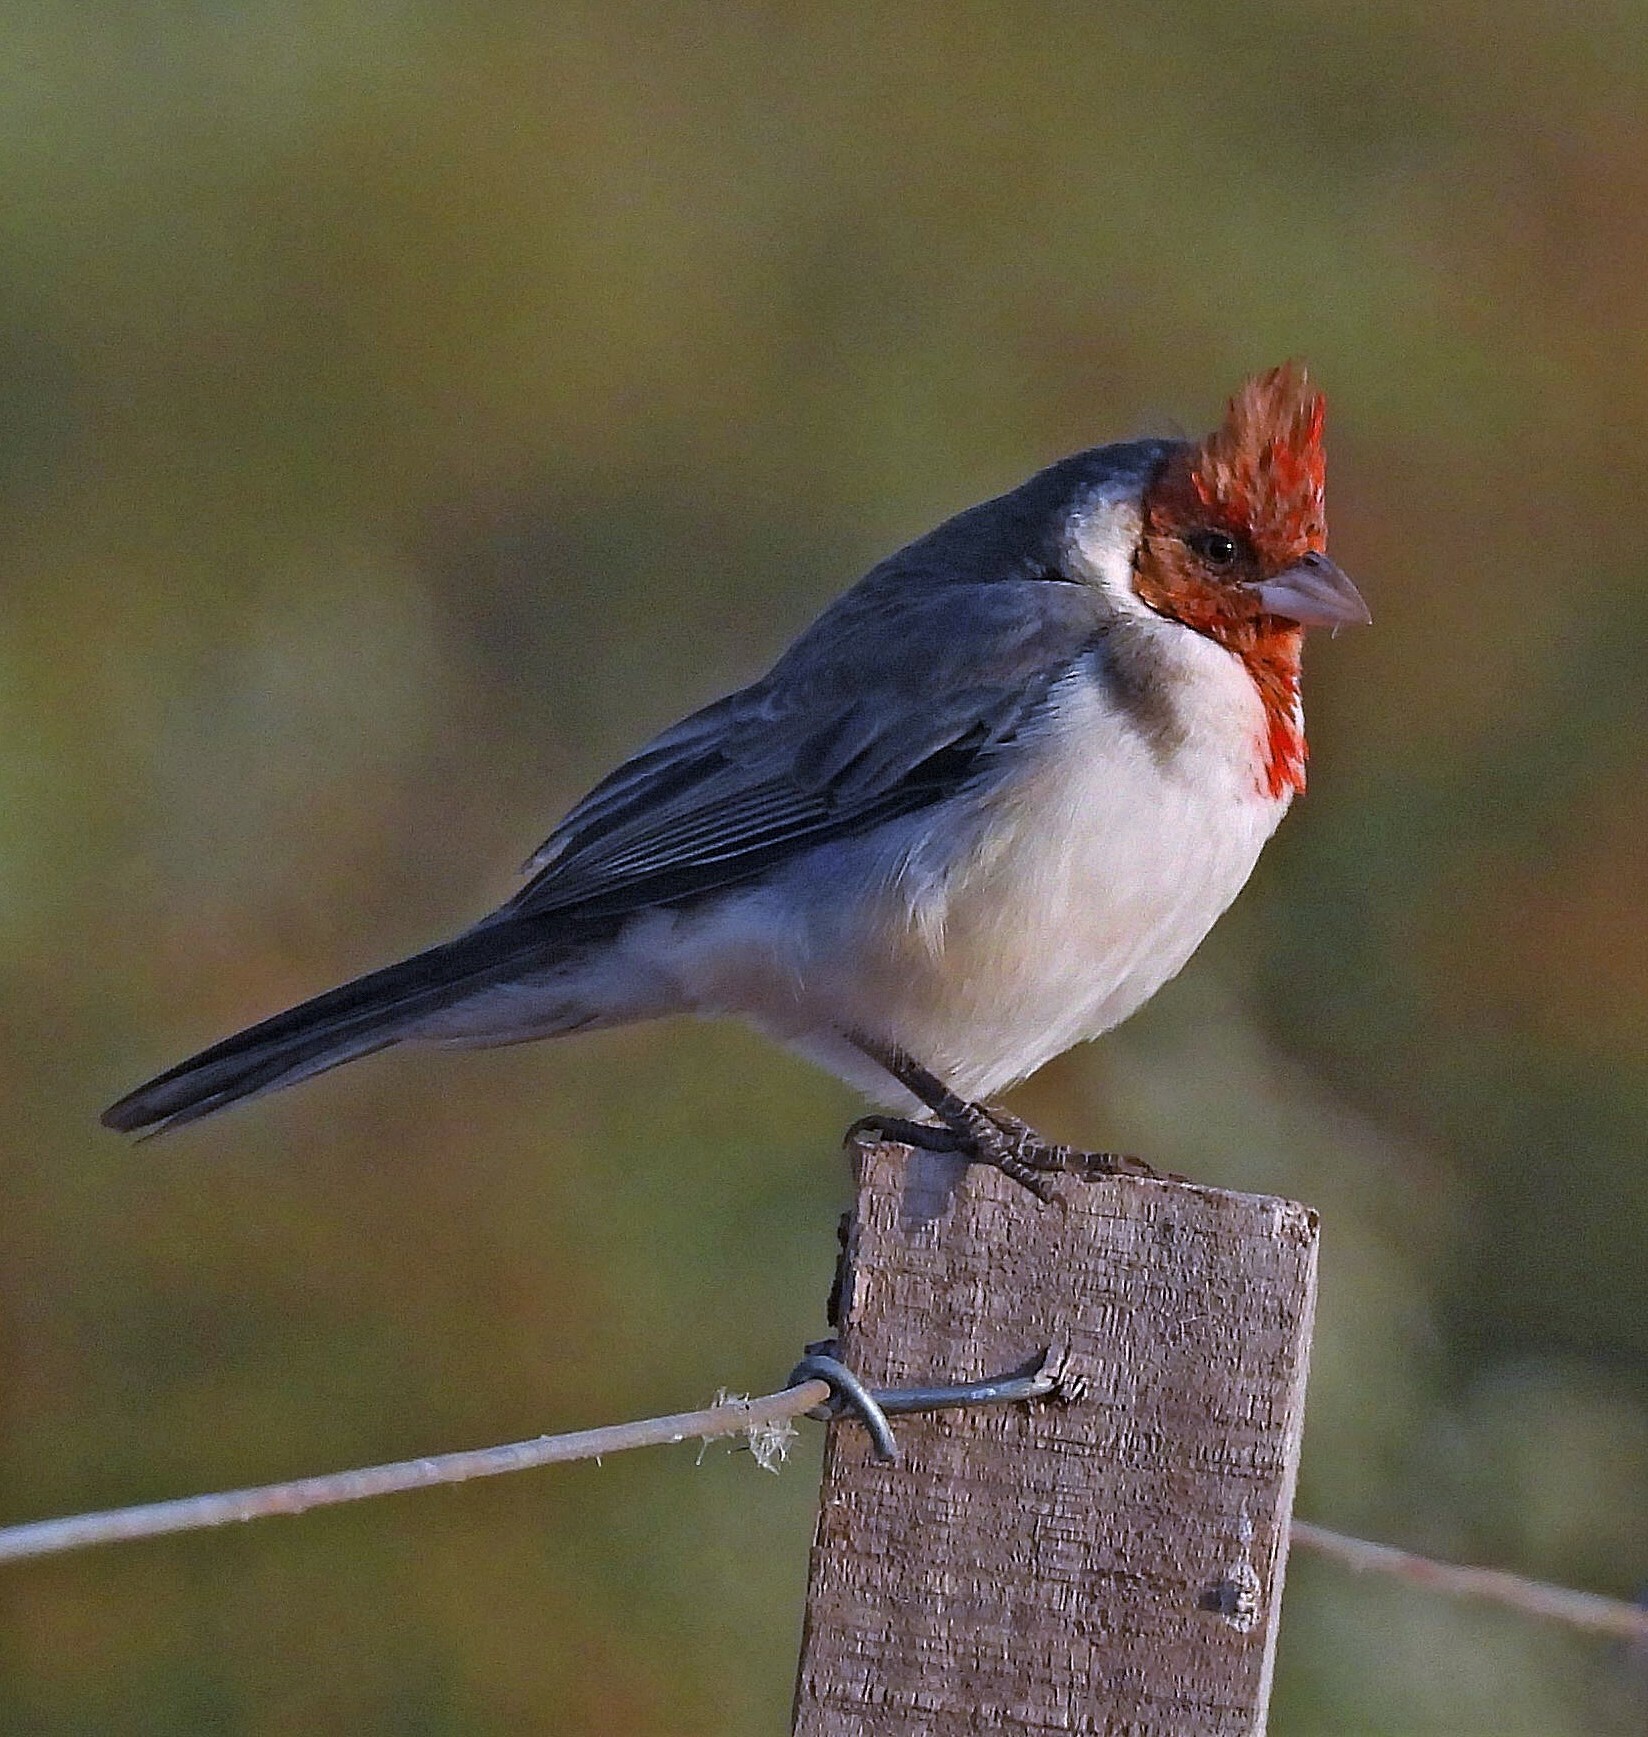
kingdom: Animalia
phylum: Chordata
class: Aves
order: Passeriformes
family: Thraupidae
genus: Paroaria
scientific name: Paroaria coronata
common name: Red-crested cardinal
